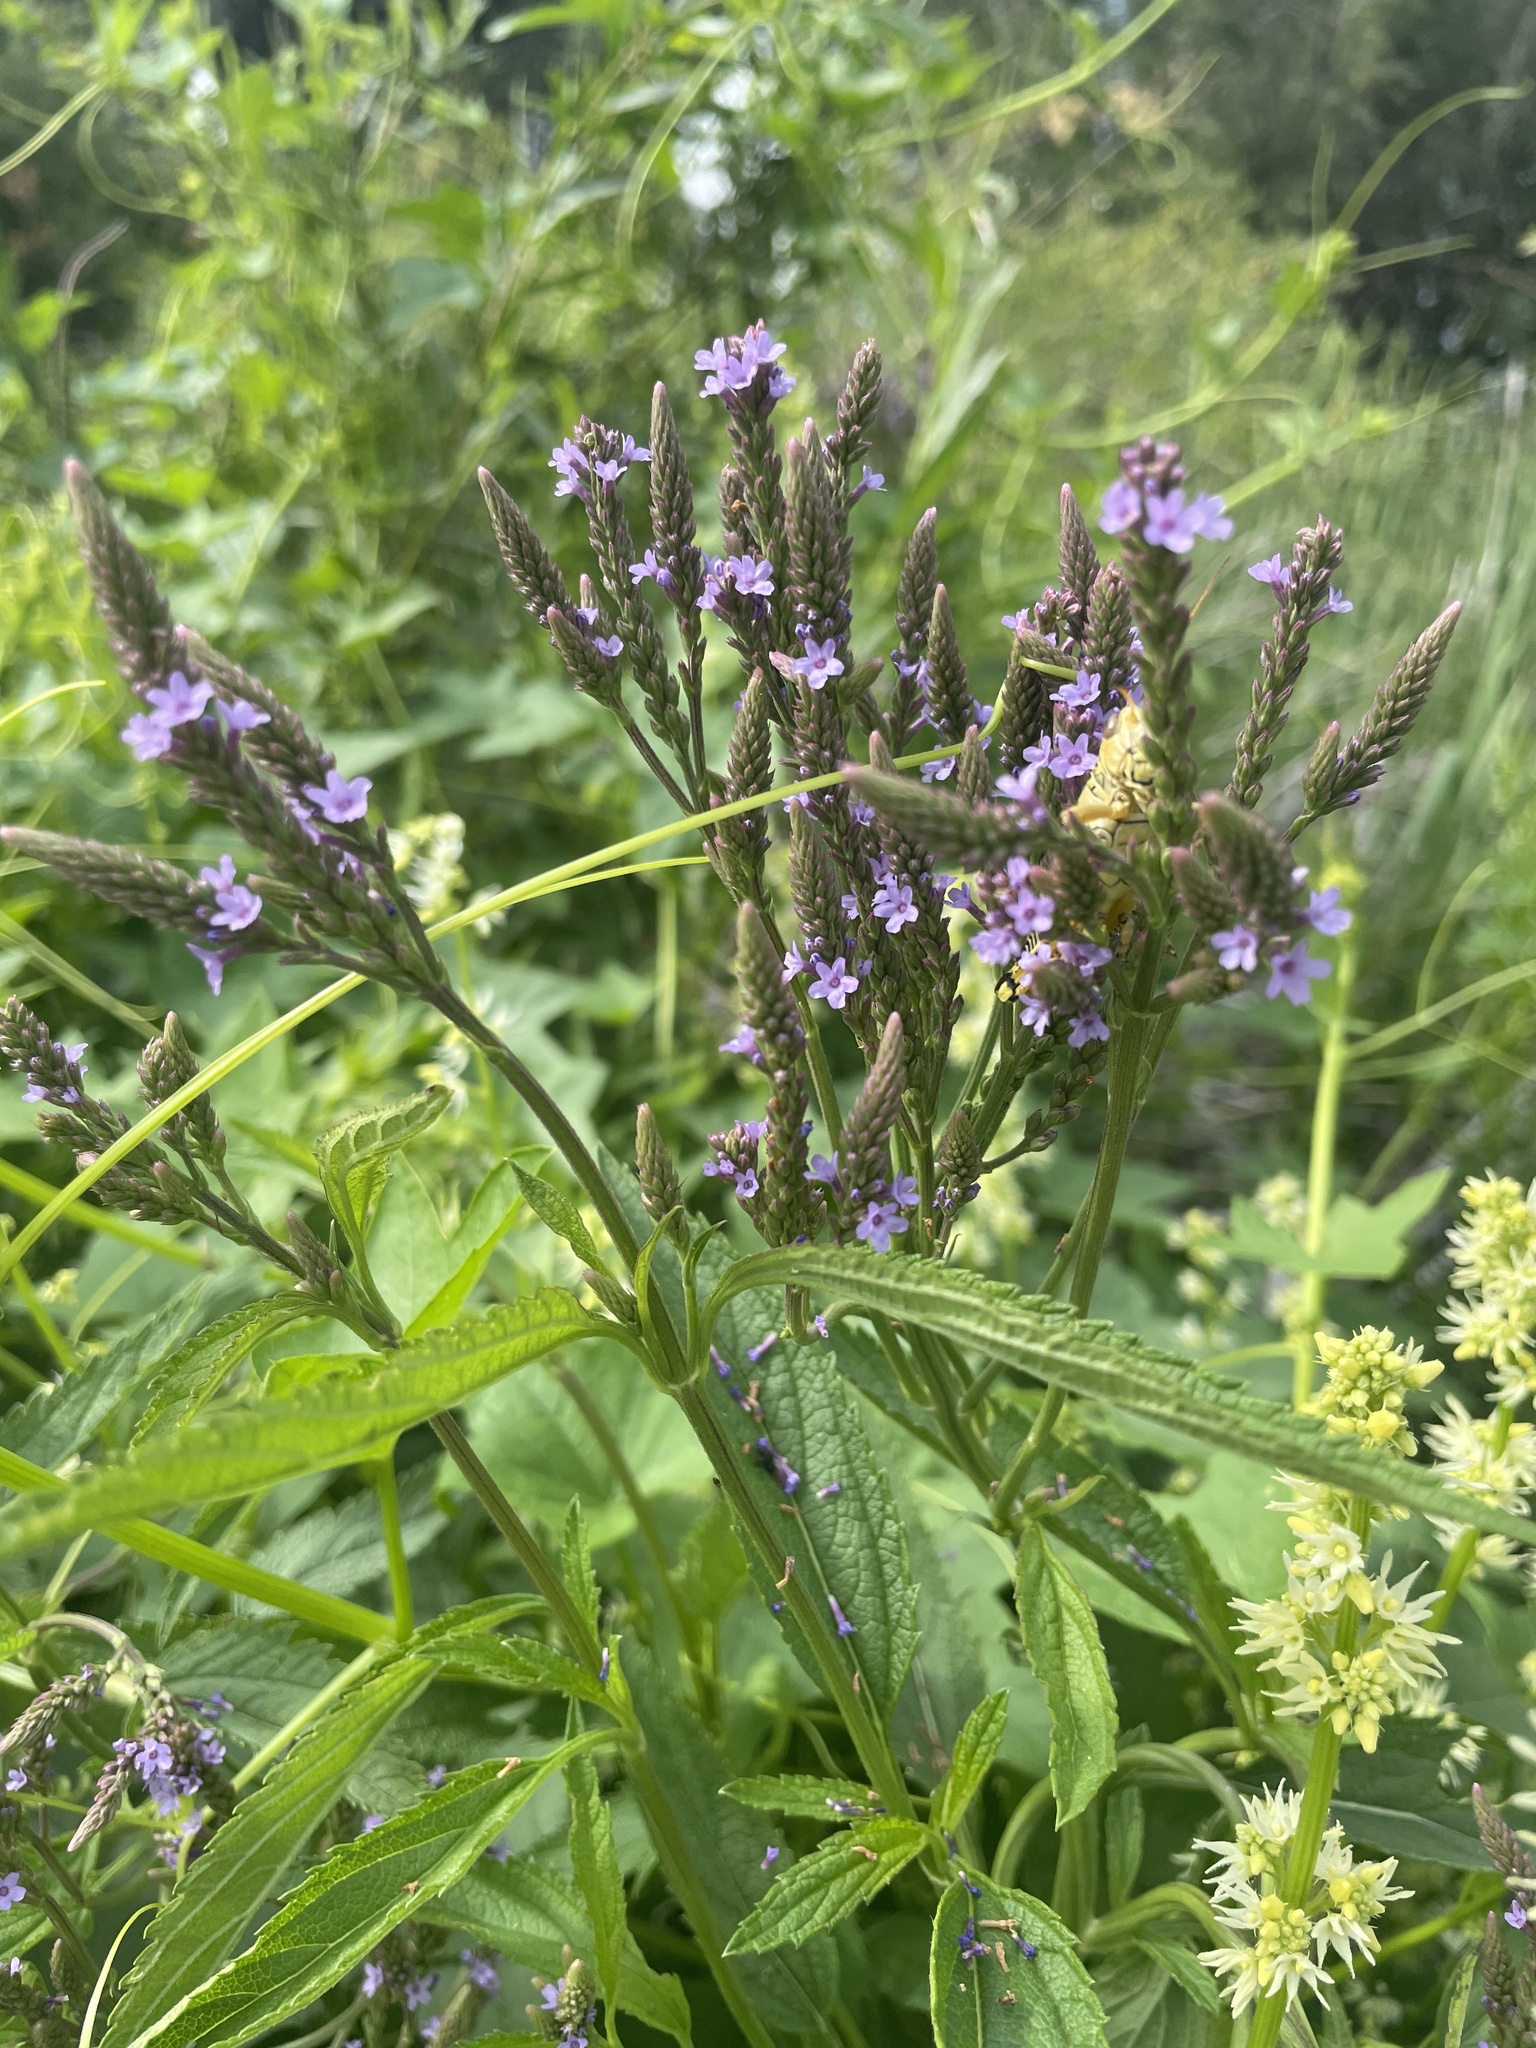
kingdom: Plantae
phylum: Tracheophyta
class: Magnoliopsida
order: Lamiales
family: Verbenaceae
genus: Verbena
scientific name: Verbena hastata
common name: American blue vervain
